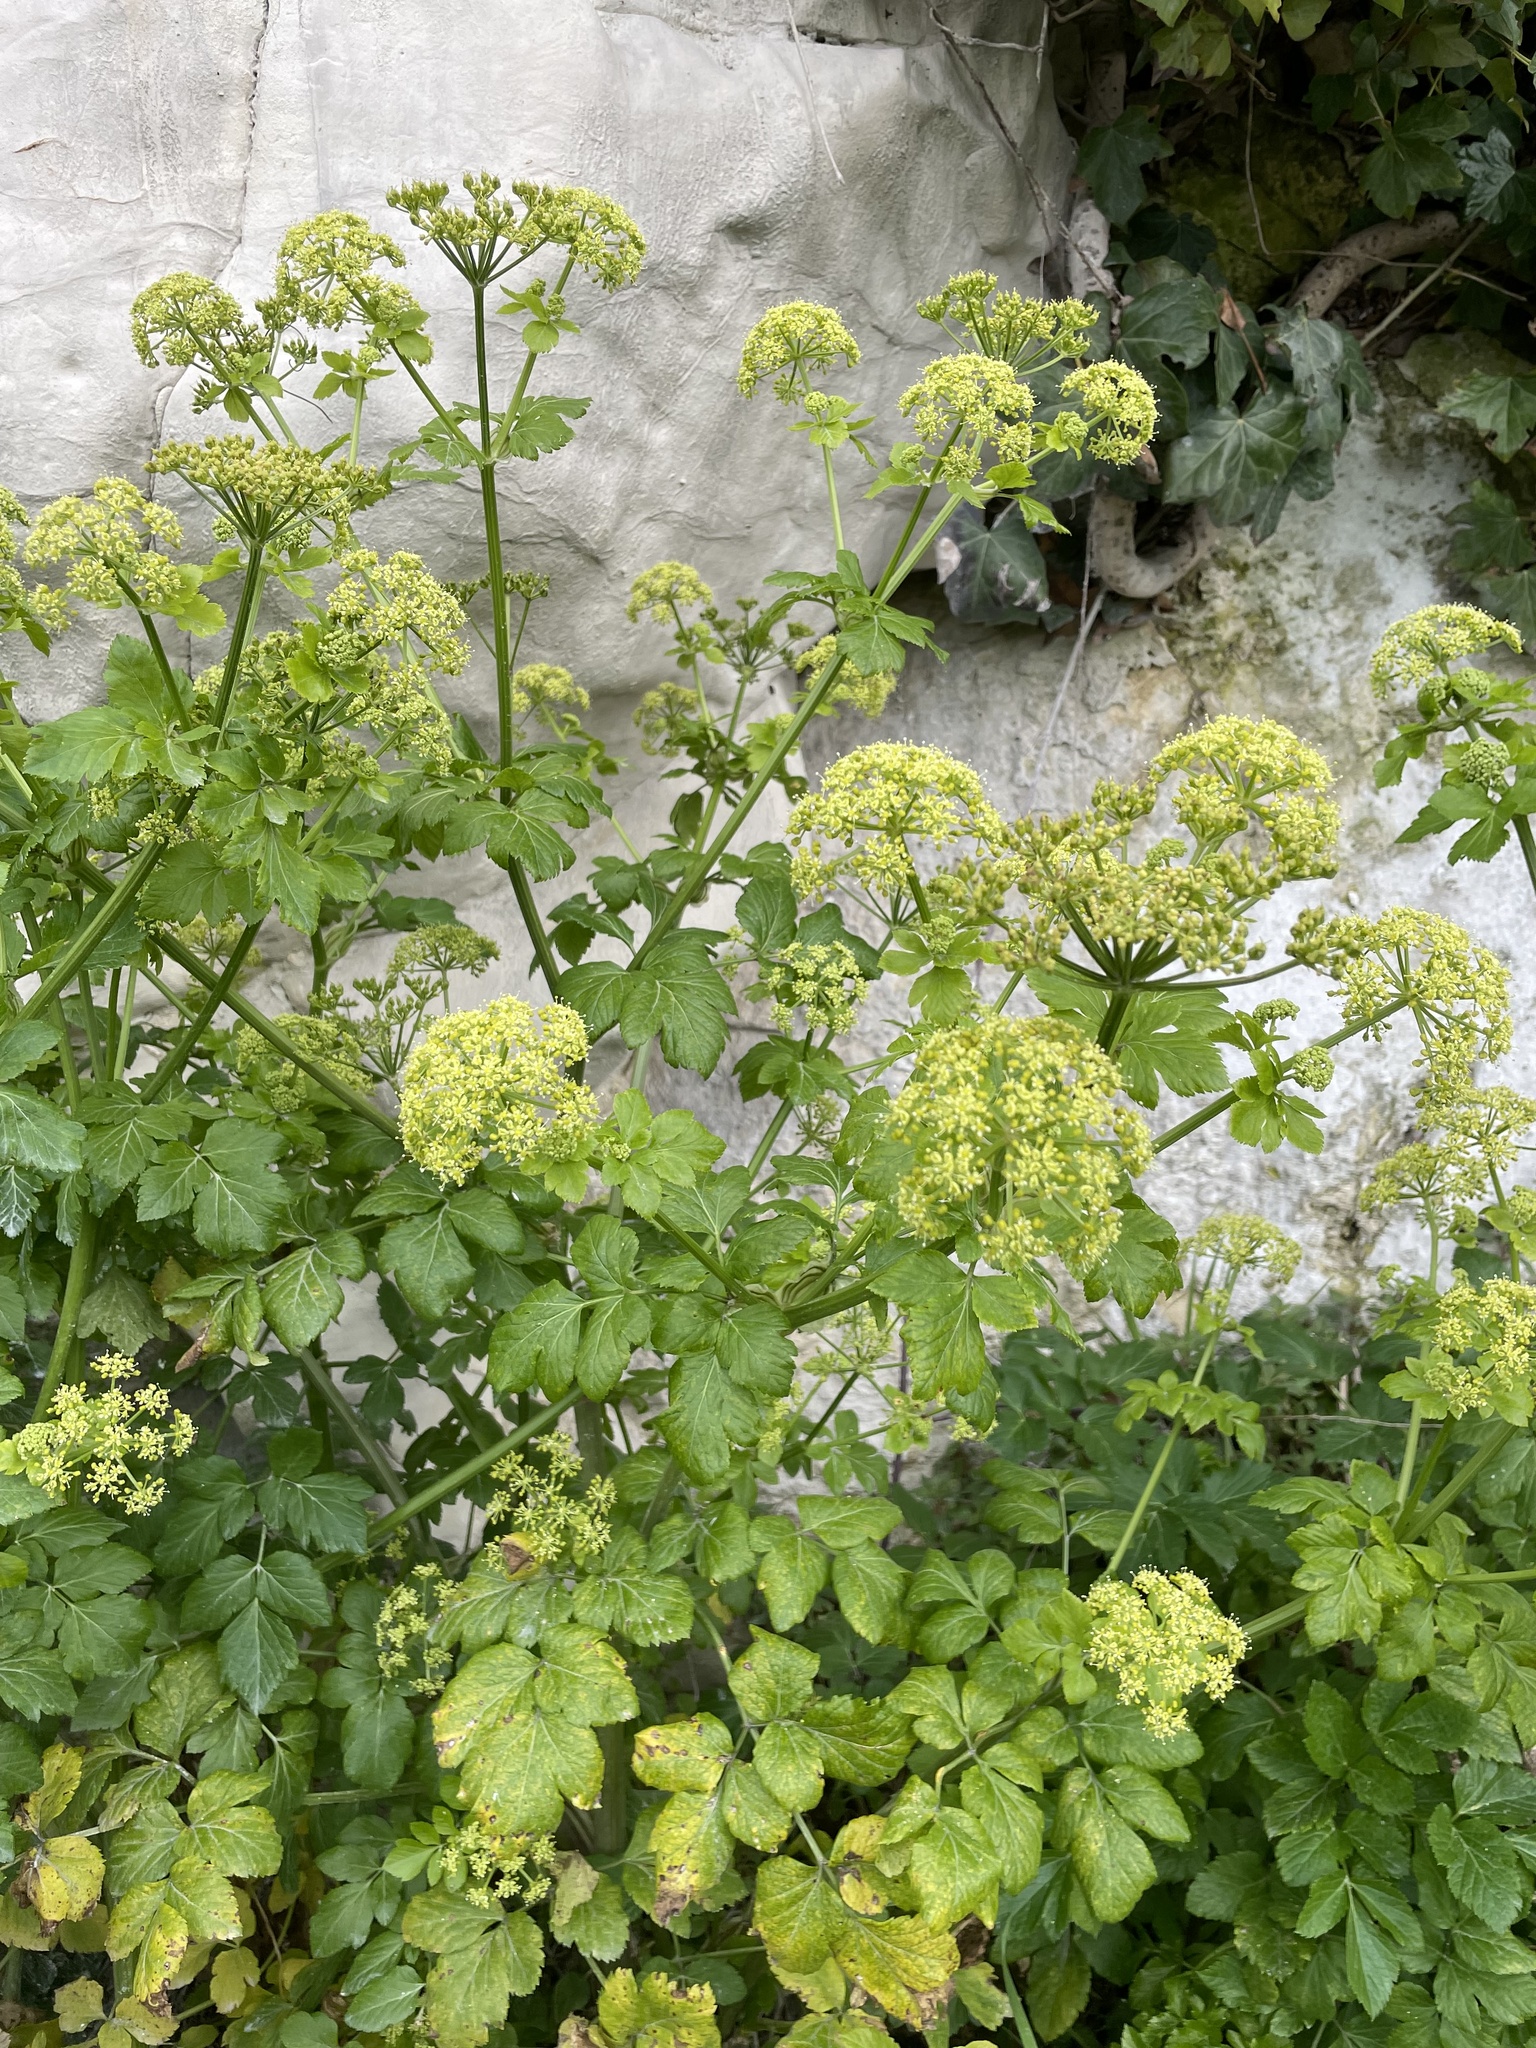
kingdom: Plantae
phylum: Tracheophyta
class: Magnoliopsida
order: Apiales
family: Apiaceae
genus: Smyrnium
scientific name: Smyrnium olusatrum
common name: Alexanders
